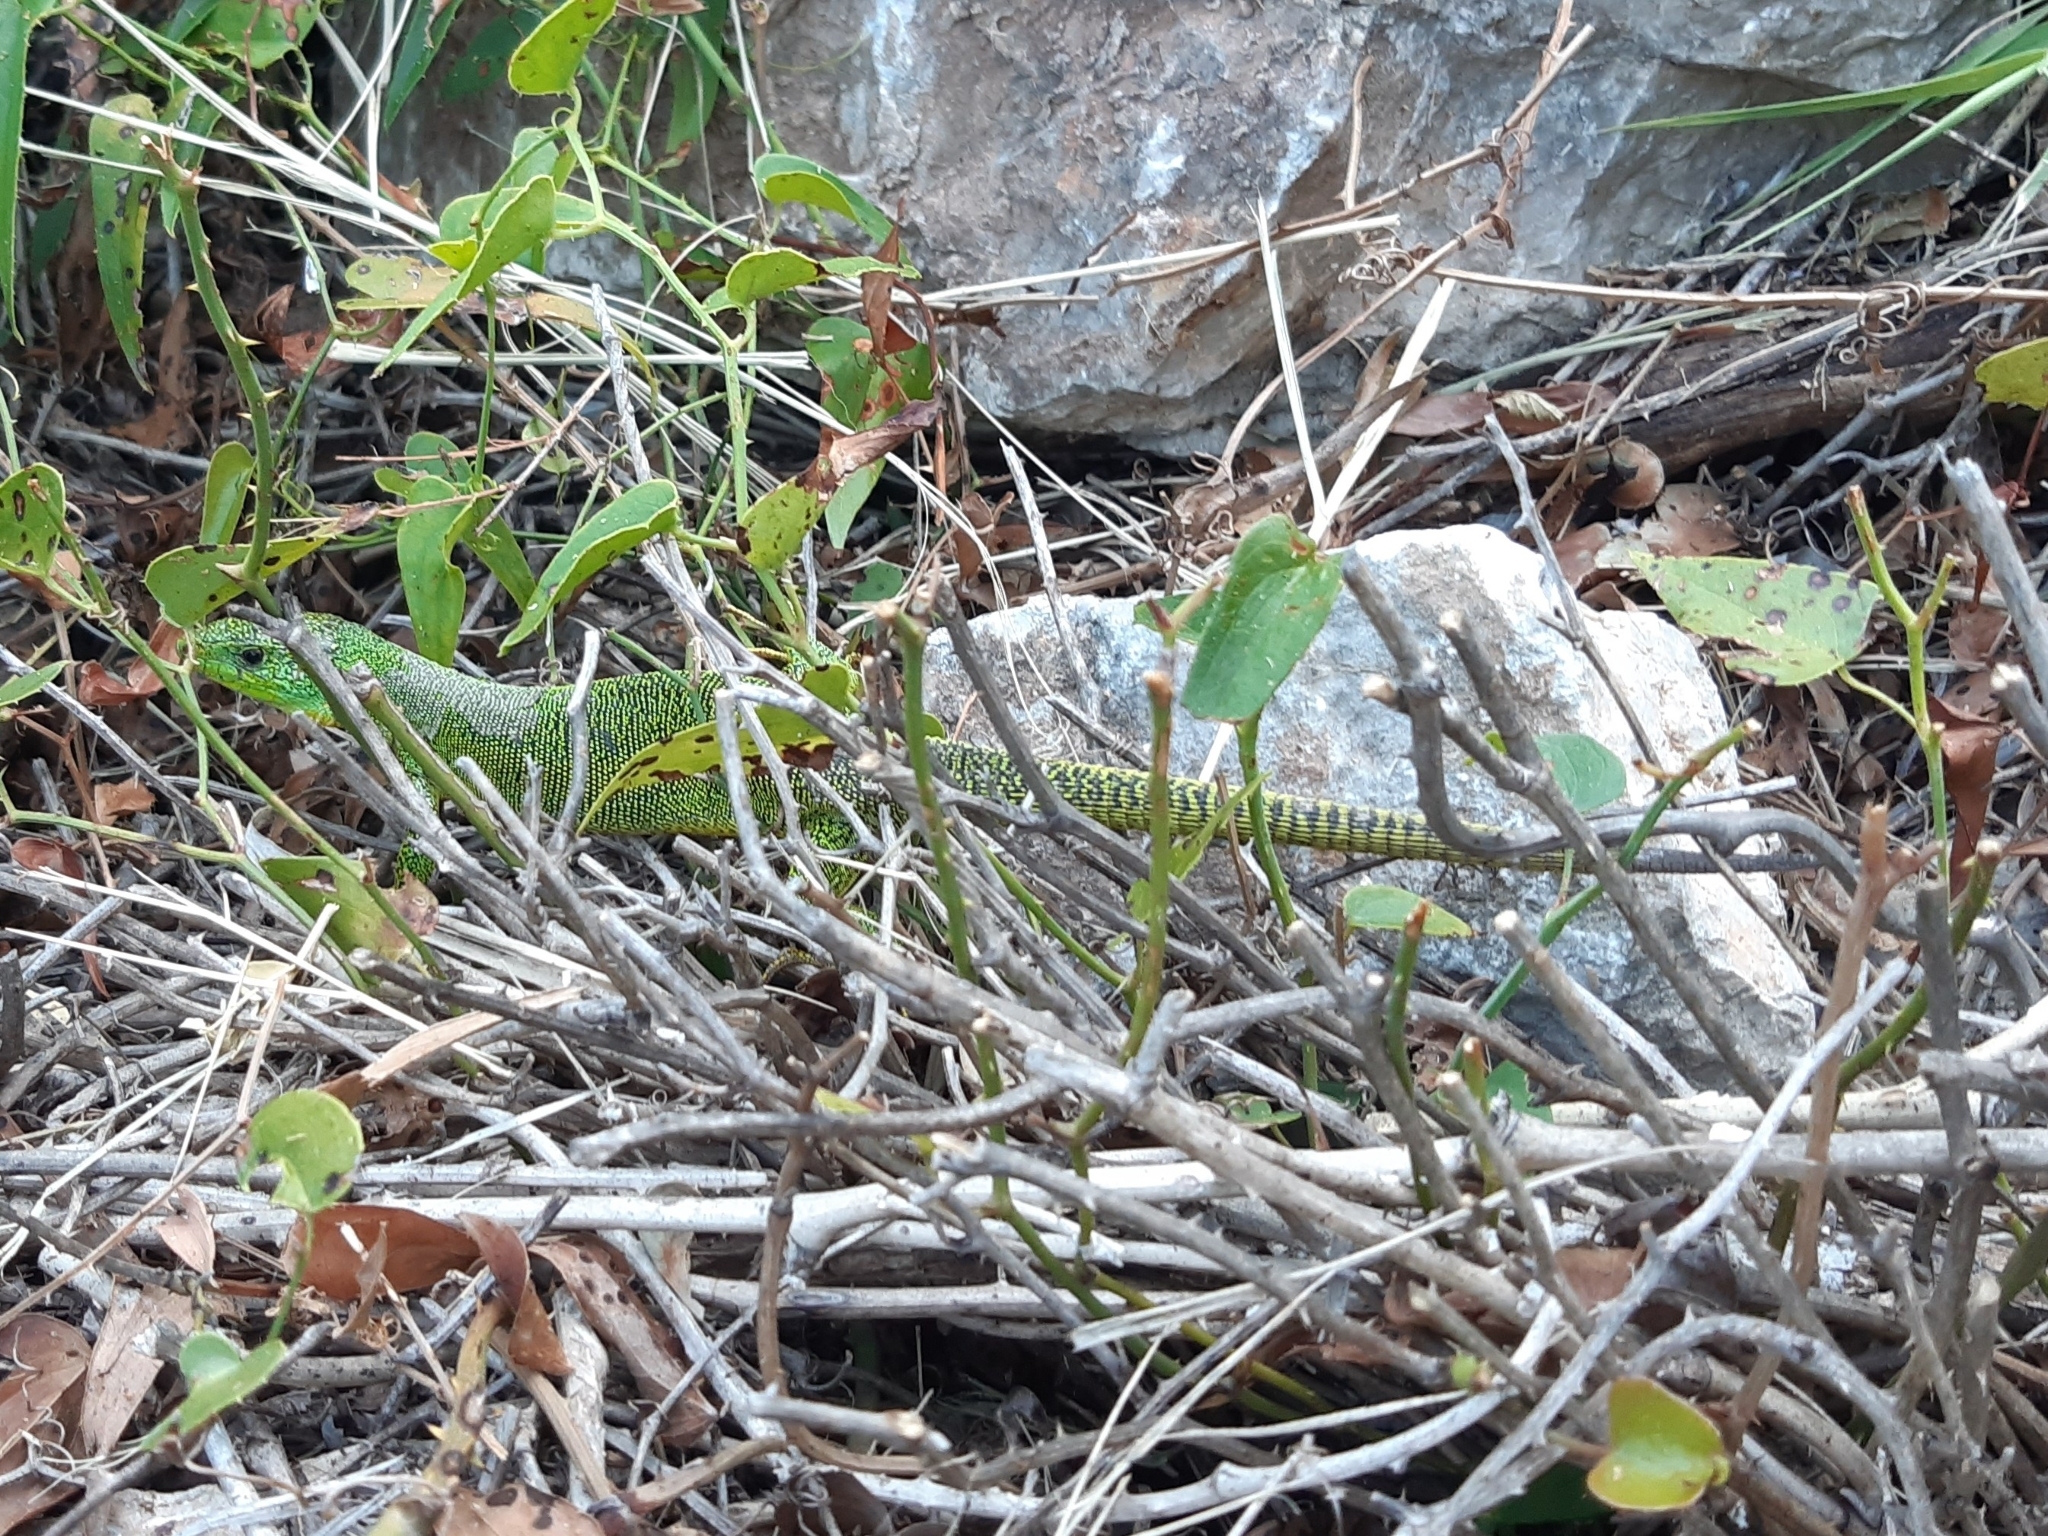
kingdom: Animalia
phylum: Chordata
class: Squamata
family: Lacertidae
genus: Lacerta
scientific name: Lacerta trilineata
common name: Balkan green lizard
